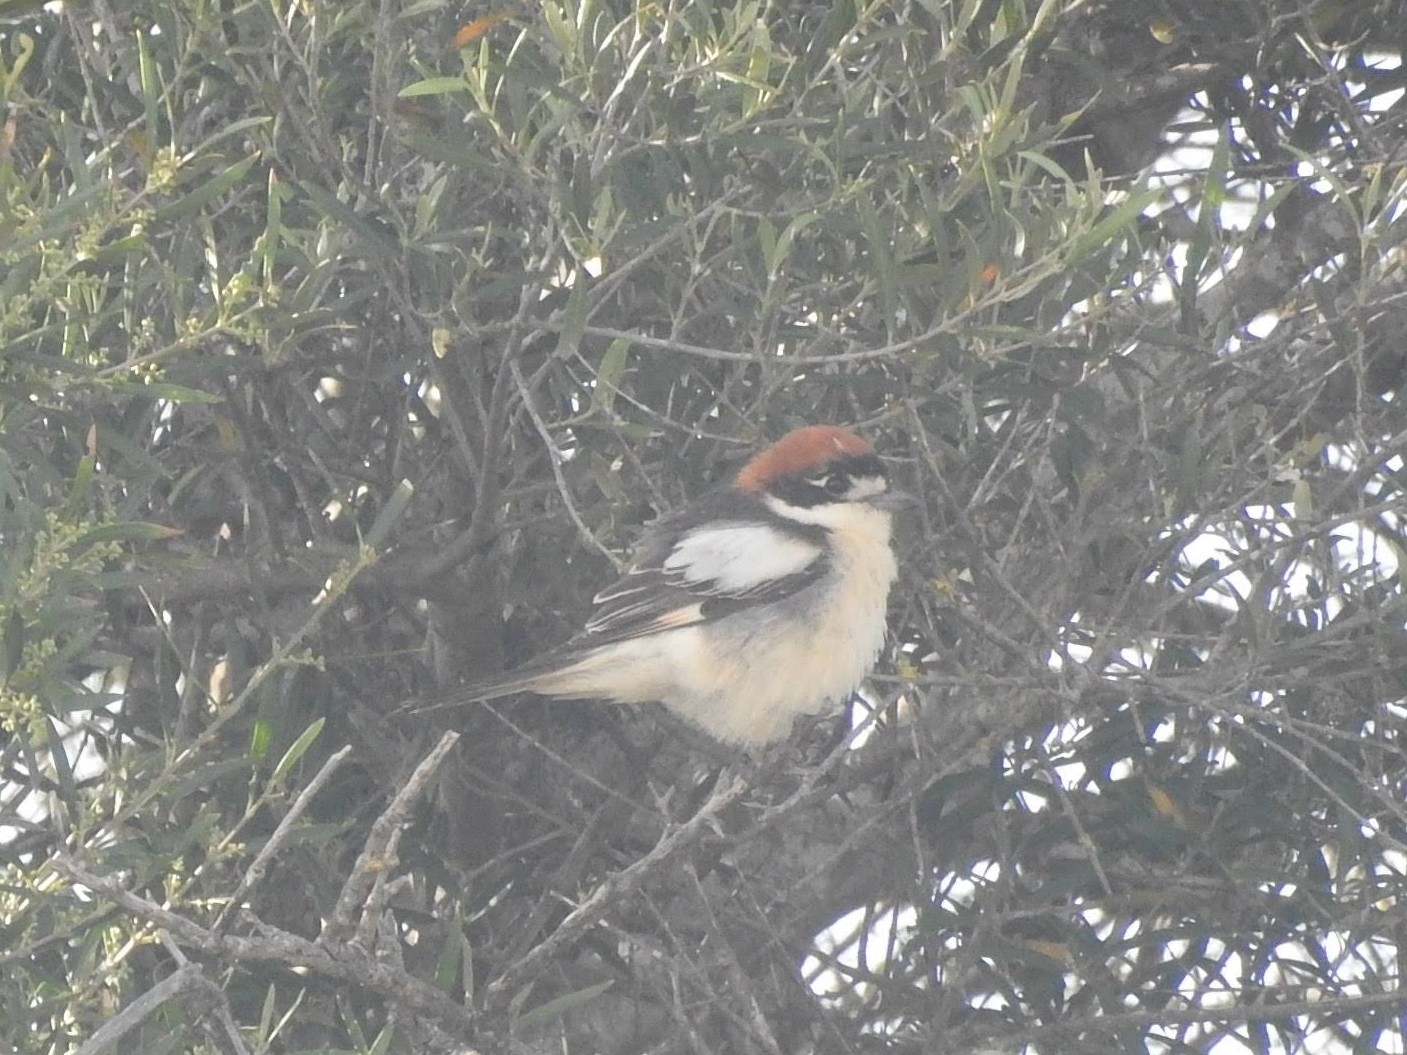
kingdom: Animalia
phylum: Chordata
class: Aves
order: Passeriformes
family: Laniidae
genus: Lanius
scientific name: Lanius senator
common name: Woodchat shrike
